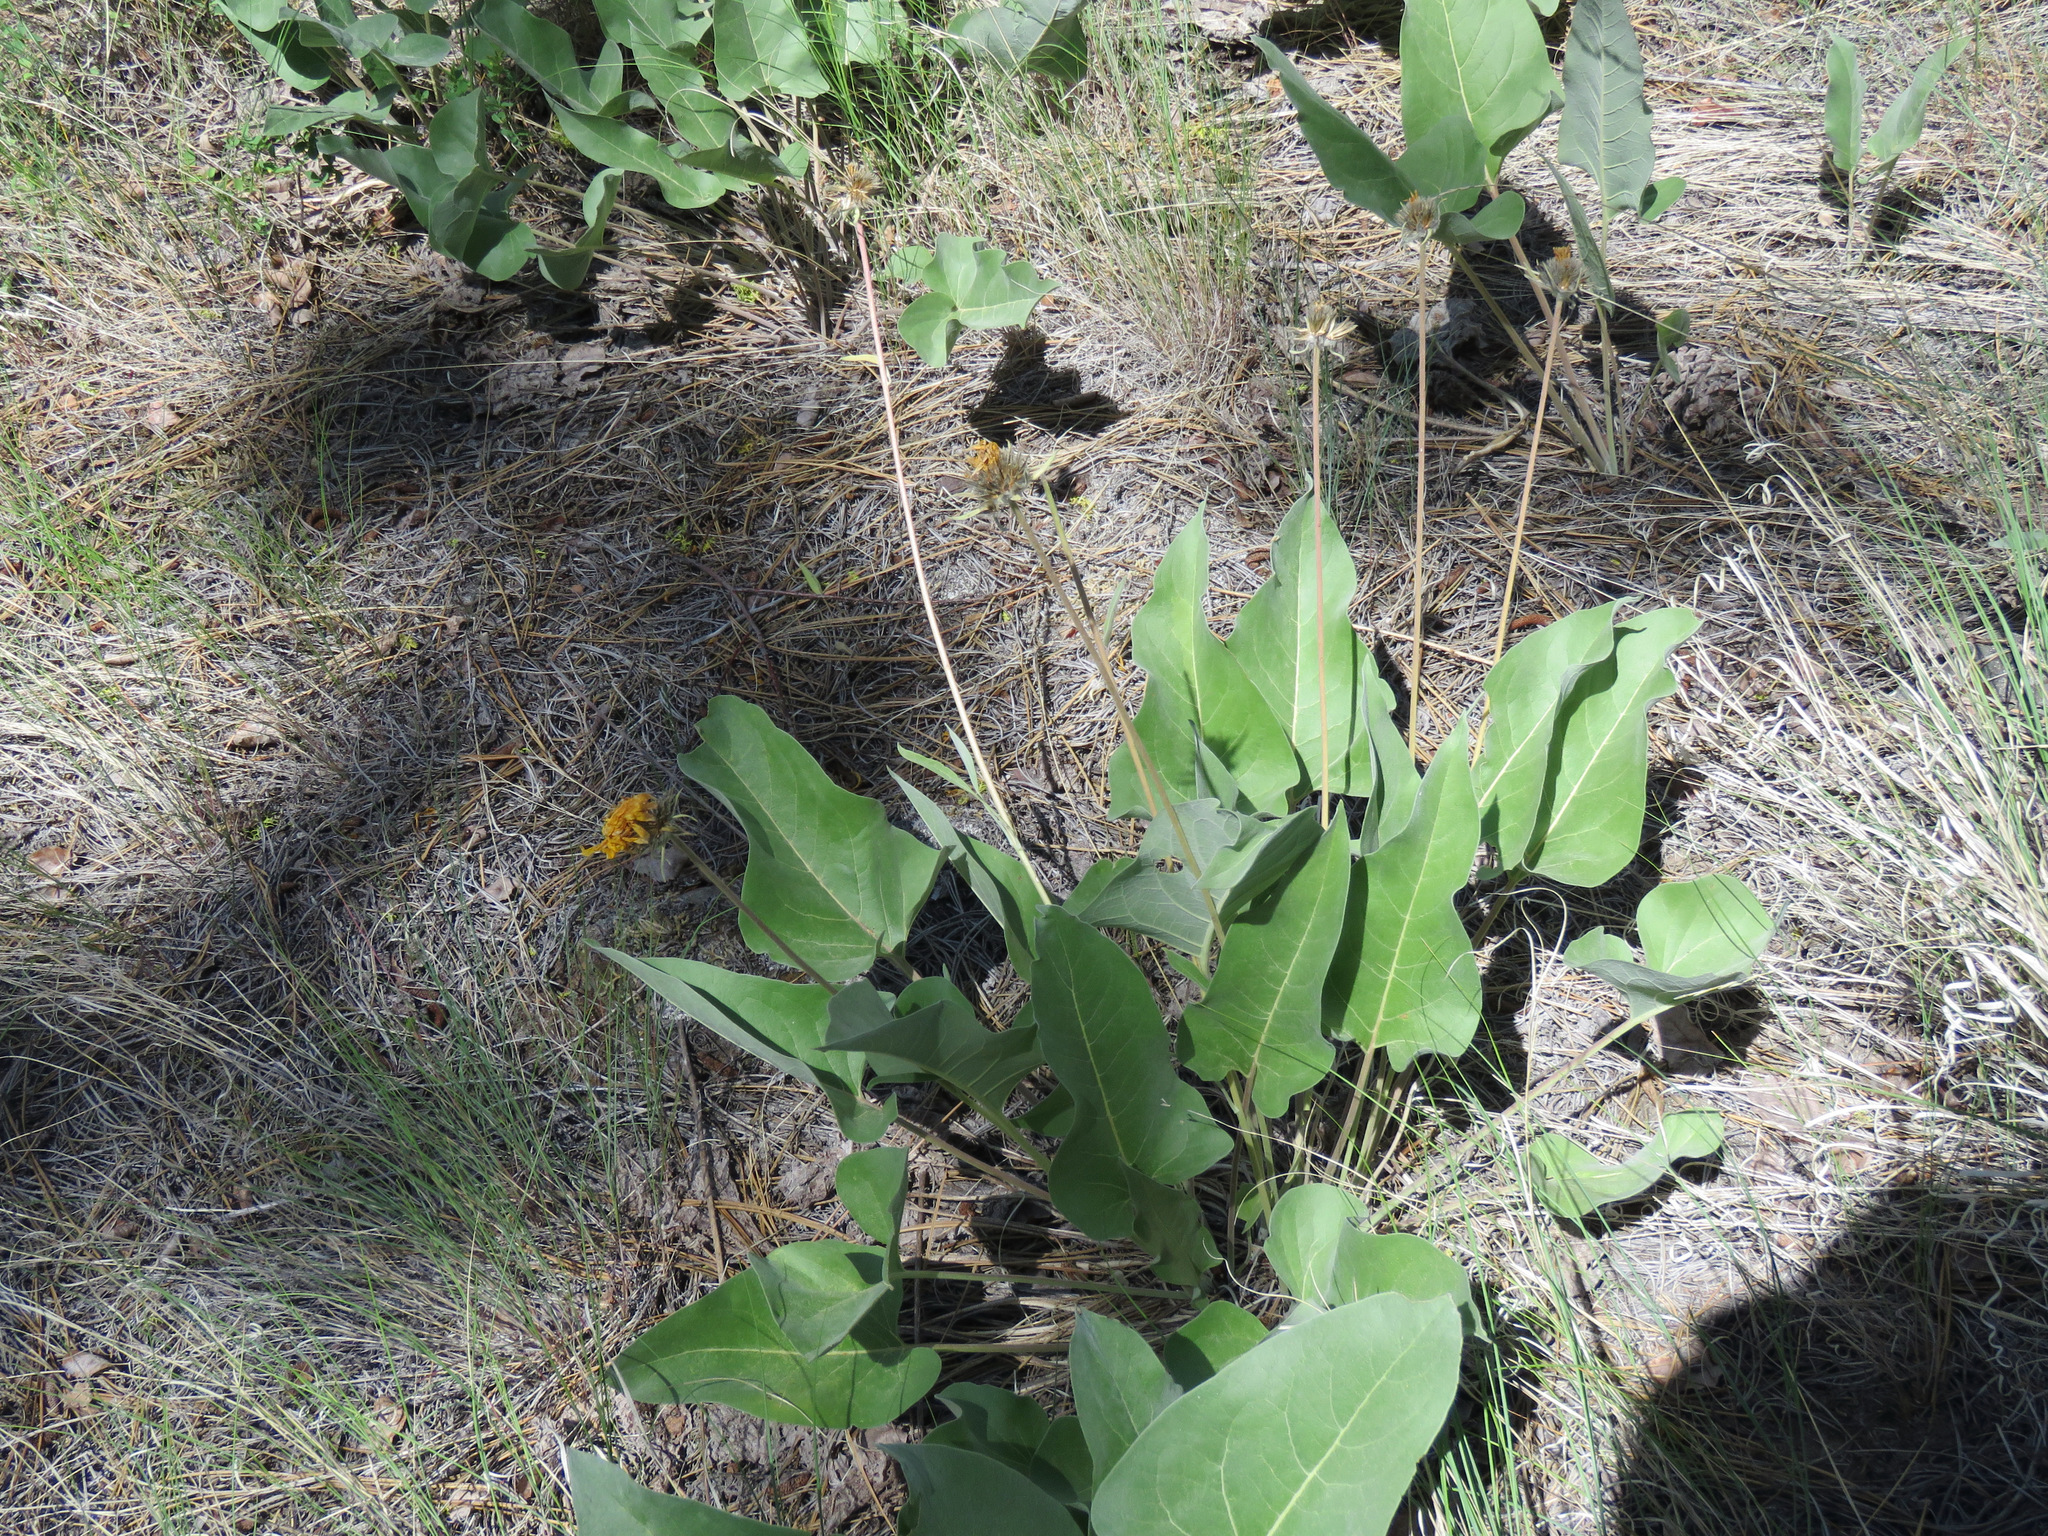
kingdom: Plantae
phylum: Tracheophyta
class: Magnoliopsida
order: Asterales
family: Asteraceae
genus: Wyethia
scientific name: Wyethia sagittata
